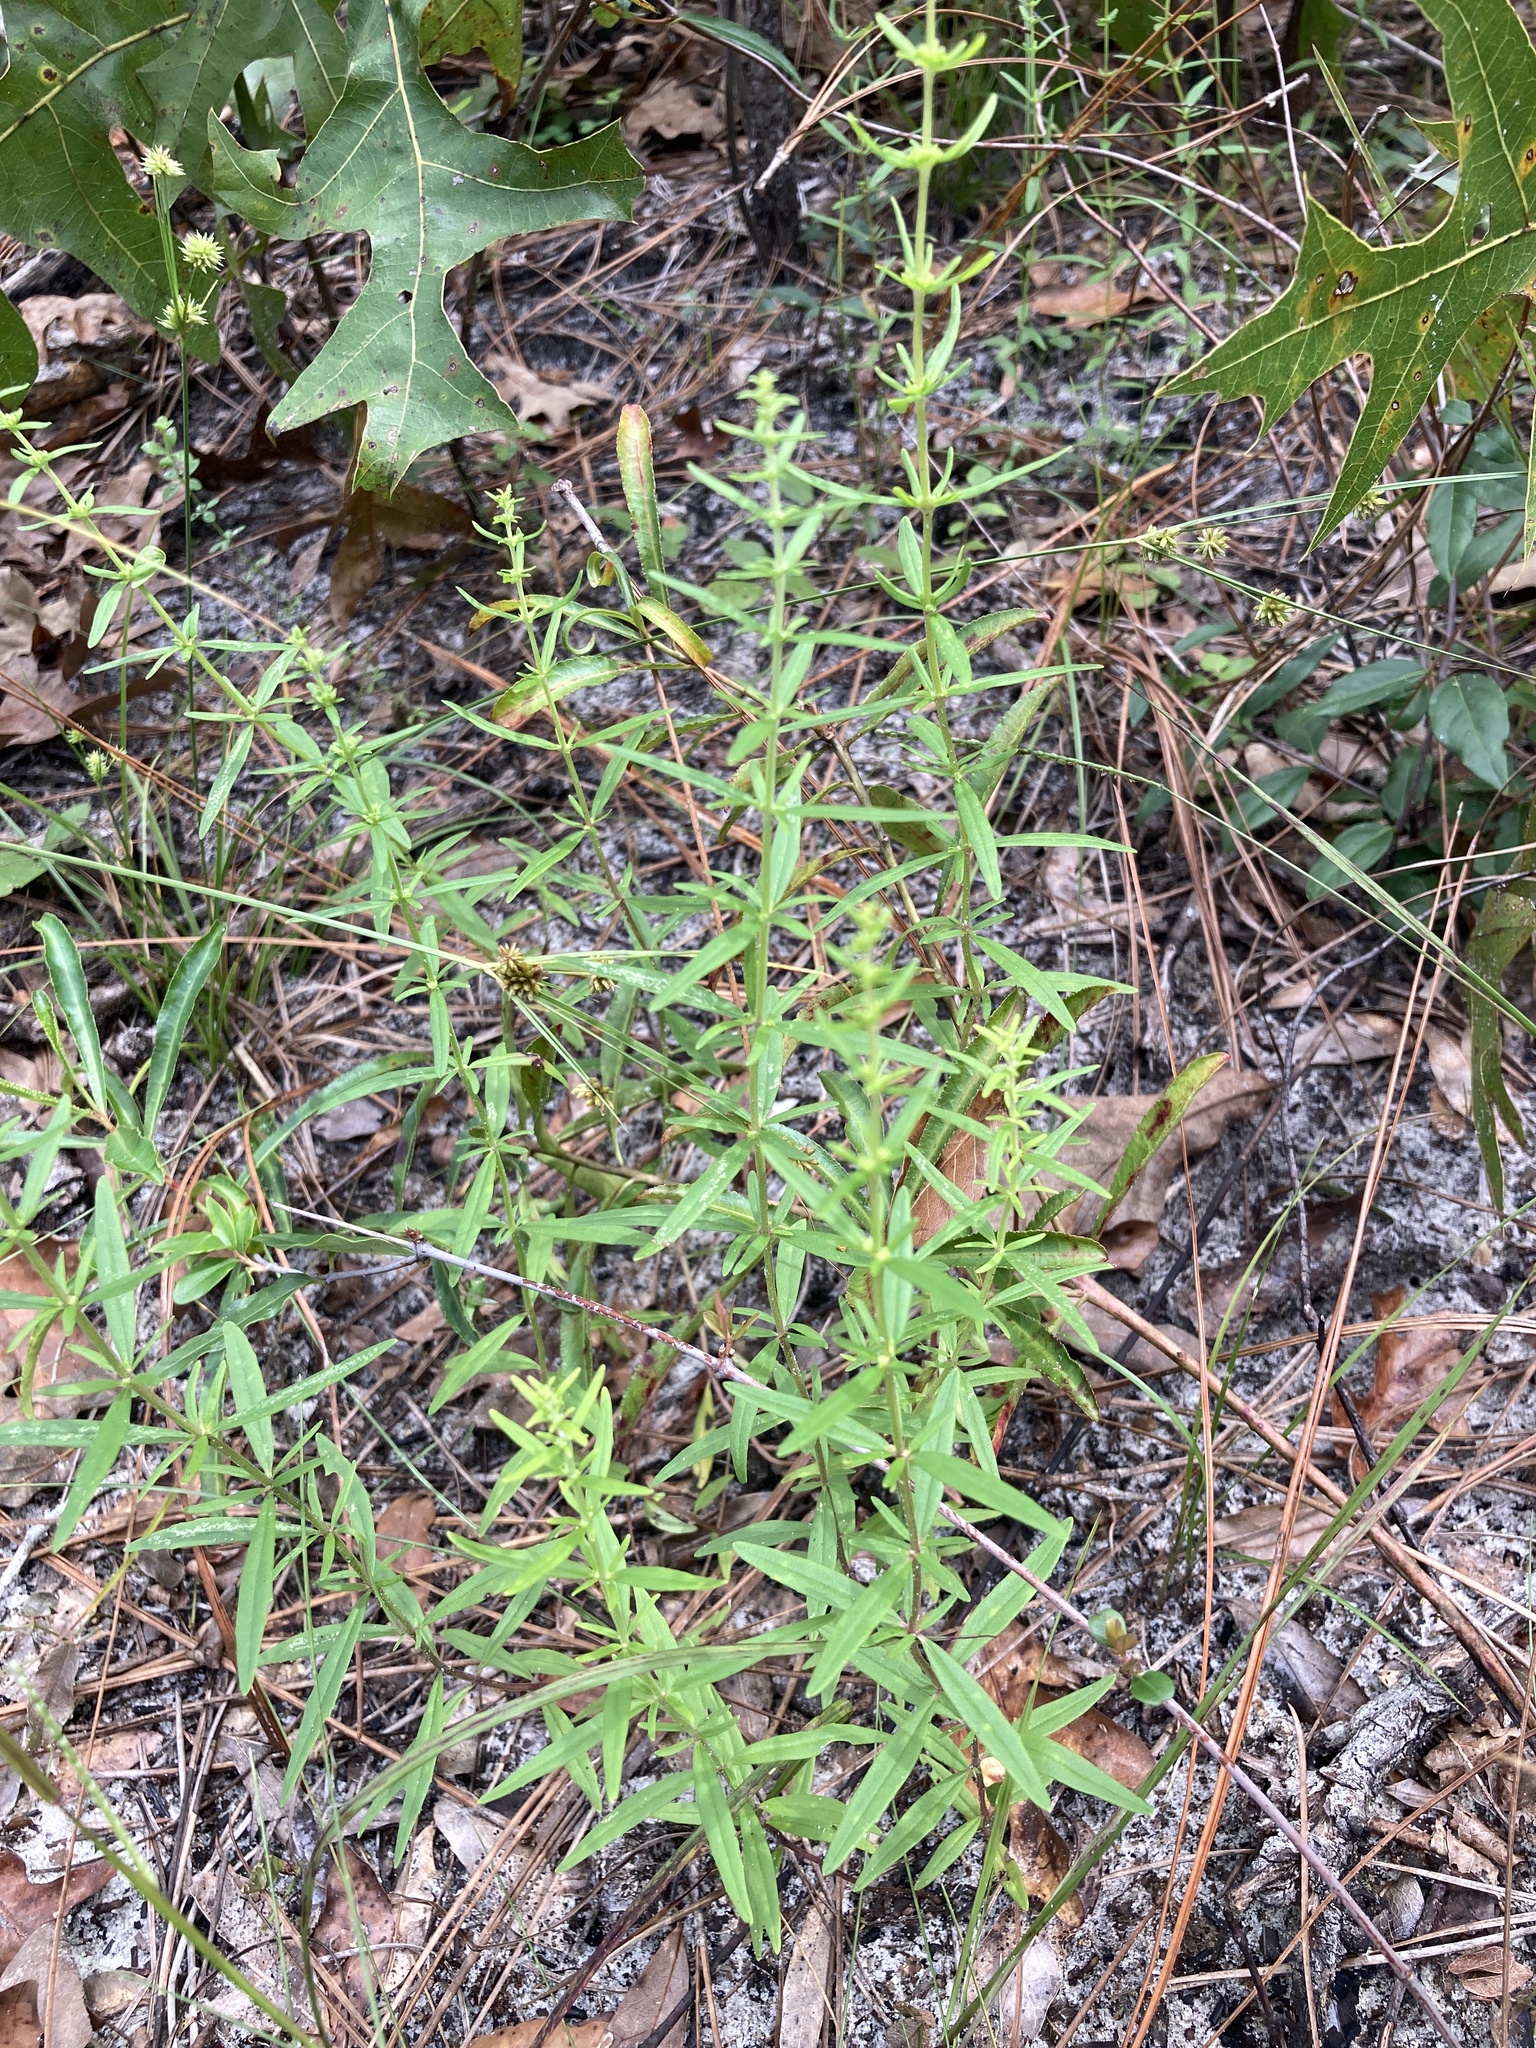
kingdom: Plantae
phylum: Tracheophyta
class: Magnoliopsida
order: Lamiales
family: Lamiaceae
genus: Dicerandra
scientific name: Dicerandra densiflora
